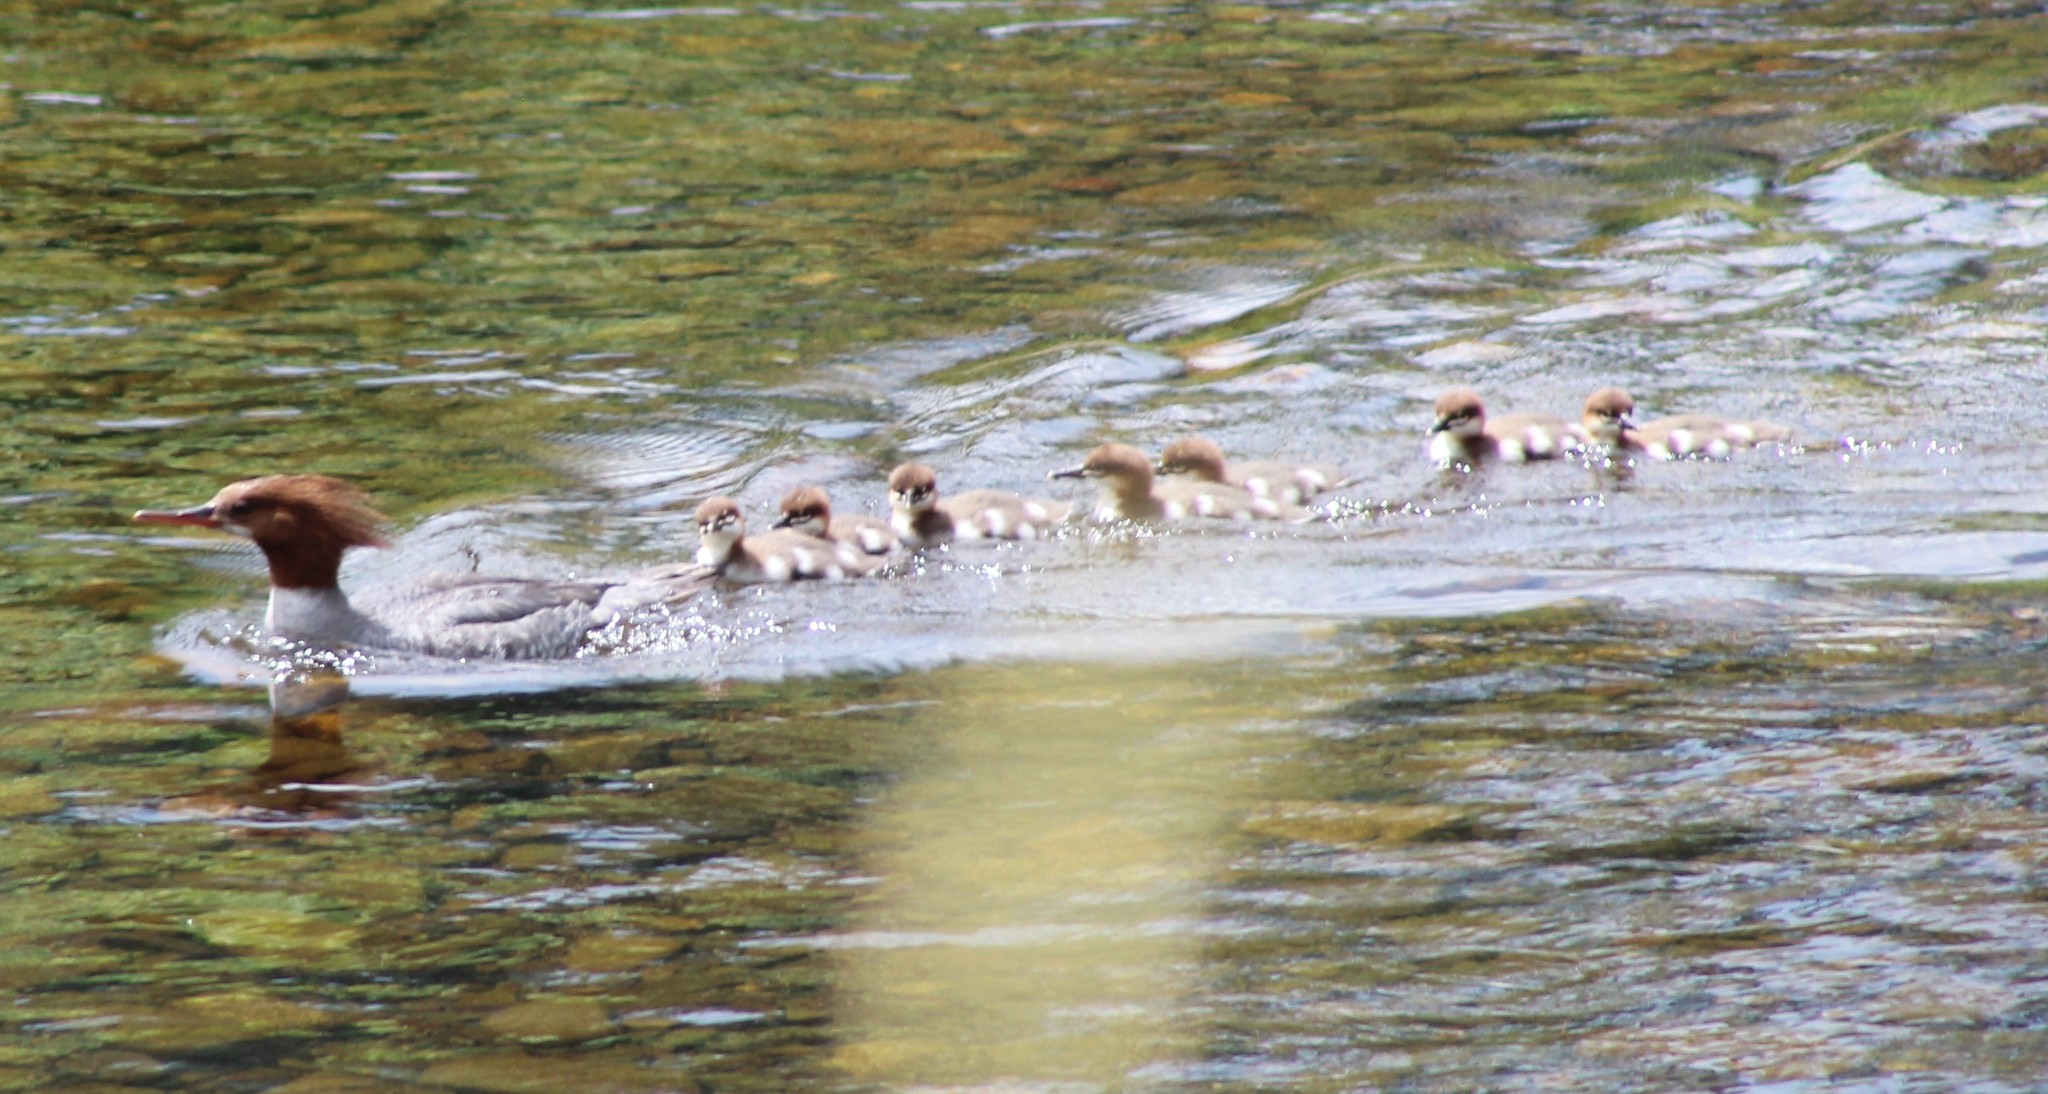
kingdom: Animalia
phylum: Chordata
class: Aves
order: Anseriformes
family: Anatidae
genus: Mergus
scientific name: Mergus merganser
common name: Common merganser
